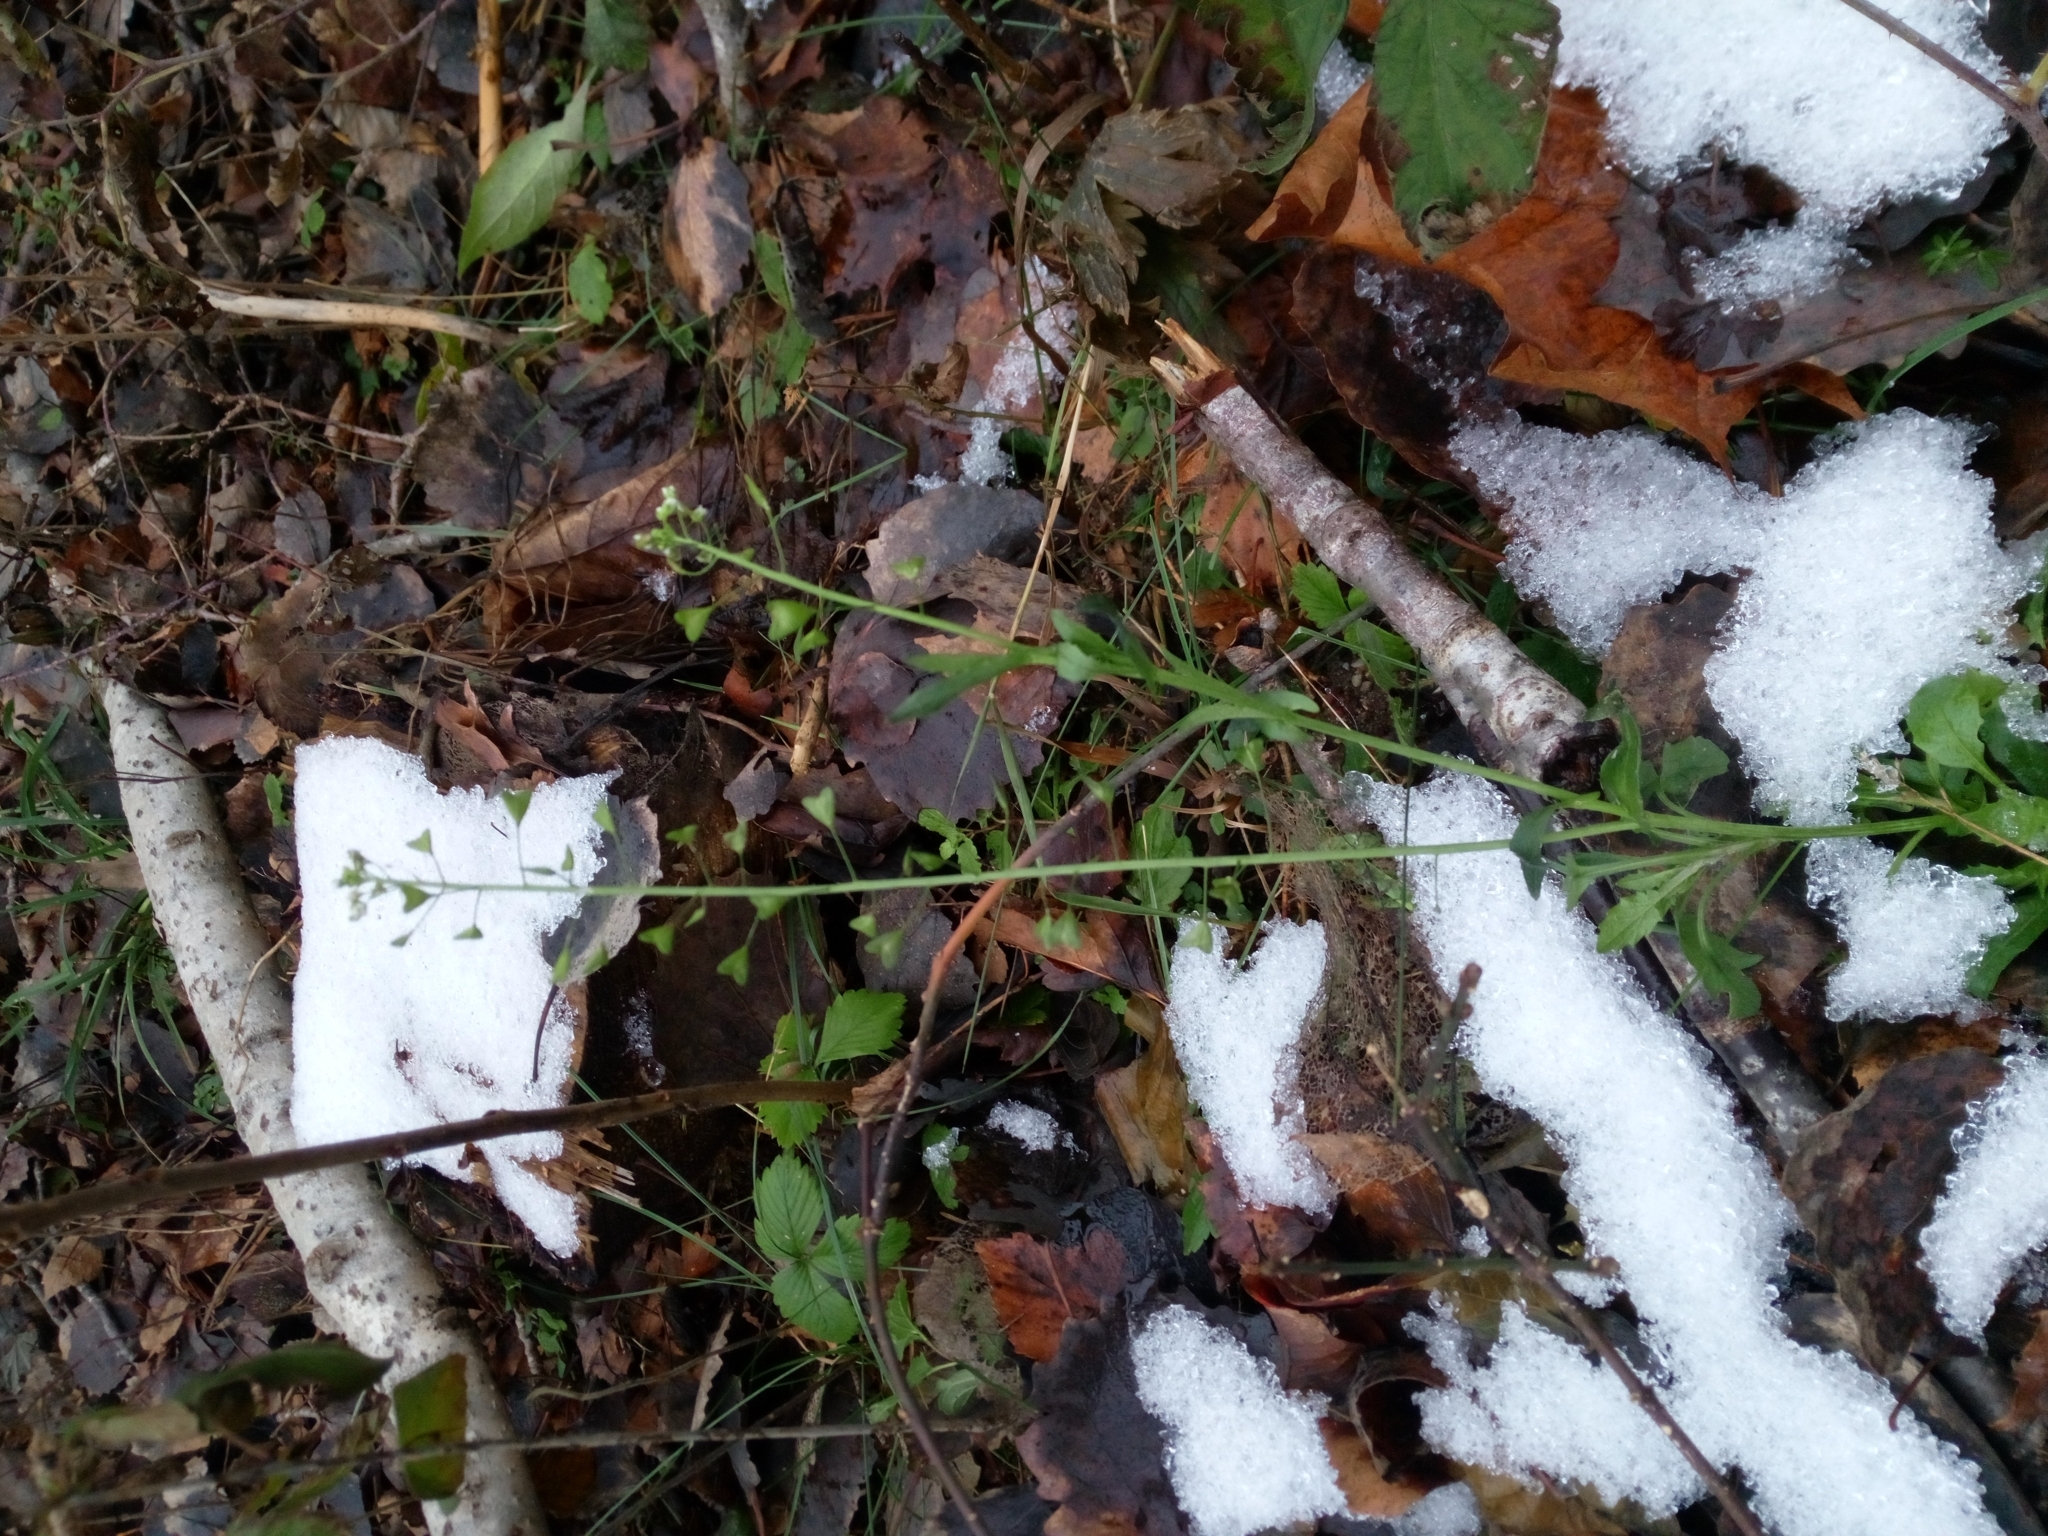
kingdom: Plantae
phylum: Tracheophyta
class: Magnoliopsida
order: Brassicales
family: Brassicaceae
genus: Capsella
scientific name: Capsella bursa-pastoris
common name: Shepherd's purse
